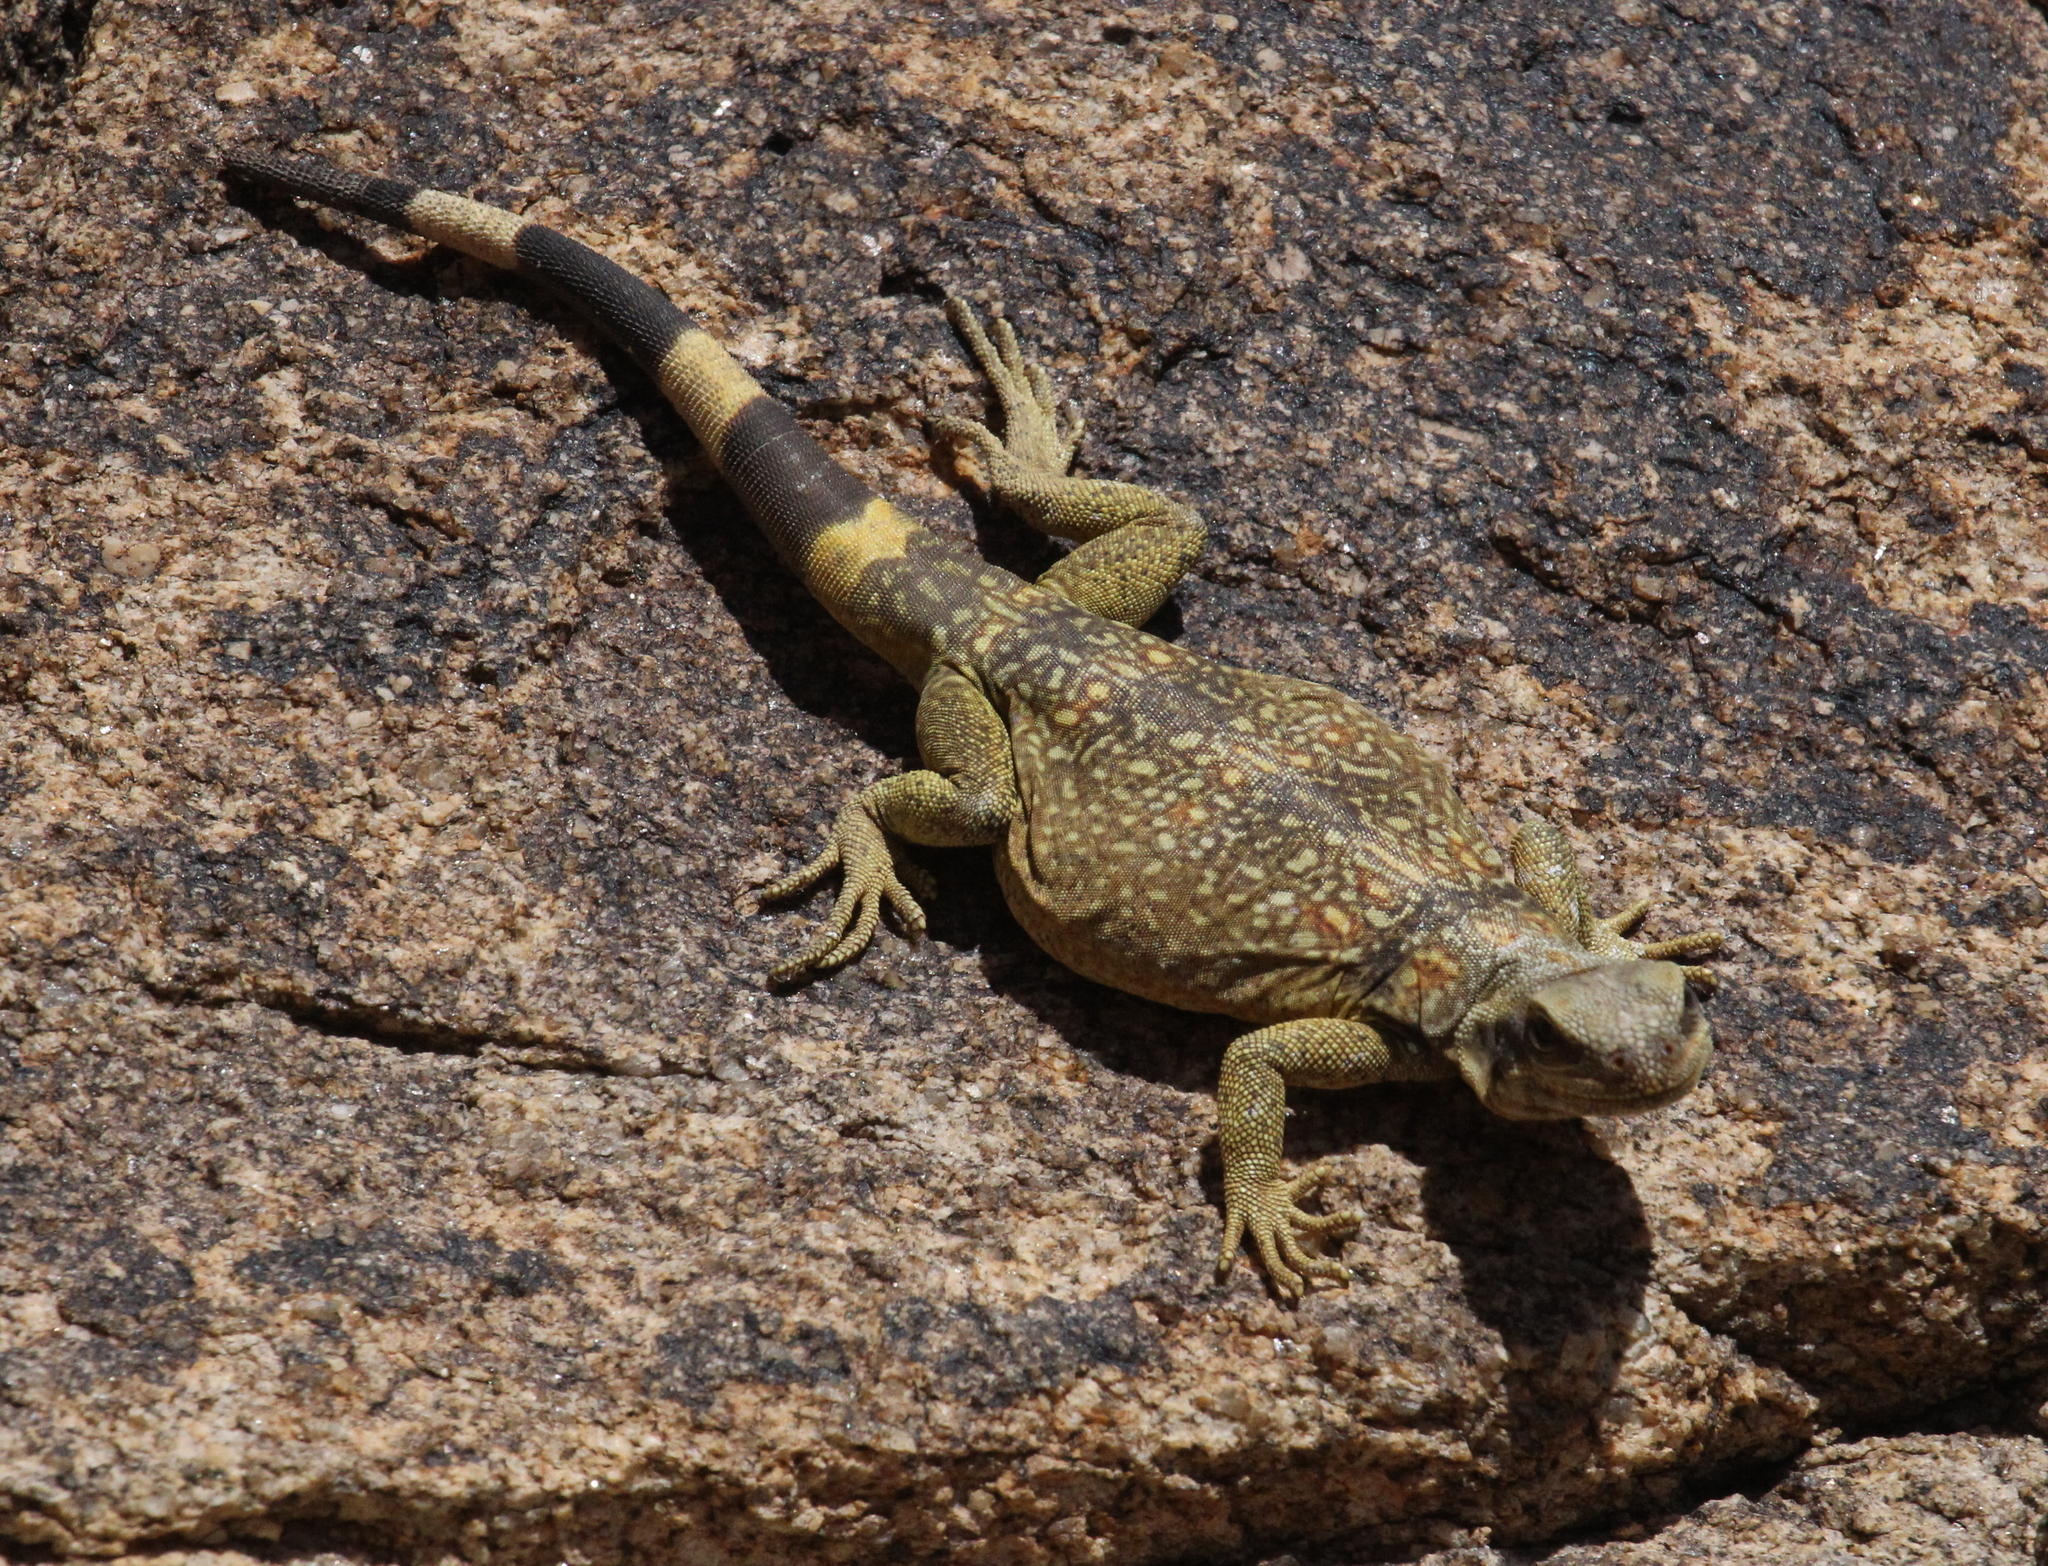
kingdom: Animalia
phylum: Chordata
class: Squamata
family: Iguanidae
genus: Sauromalus
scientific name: Sauromalus ater
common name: Northern chuckwalla
